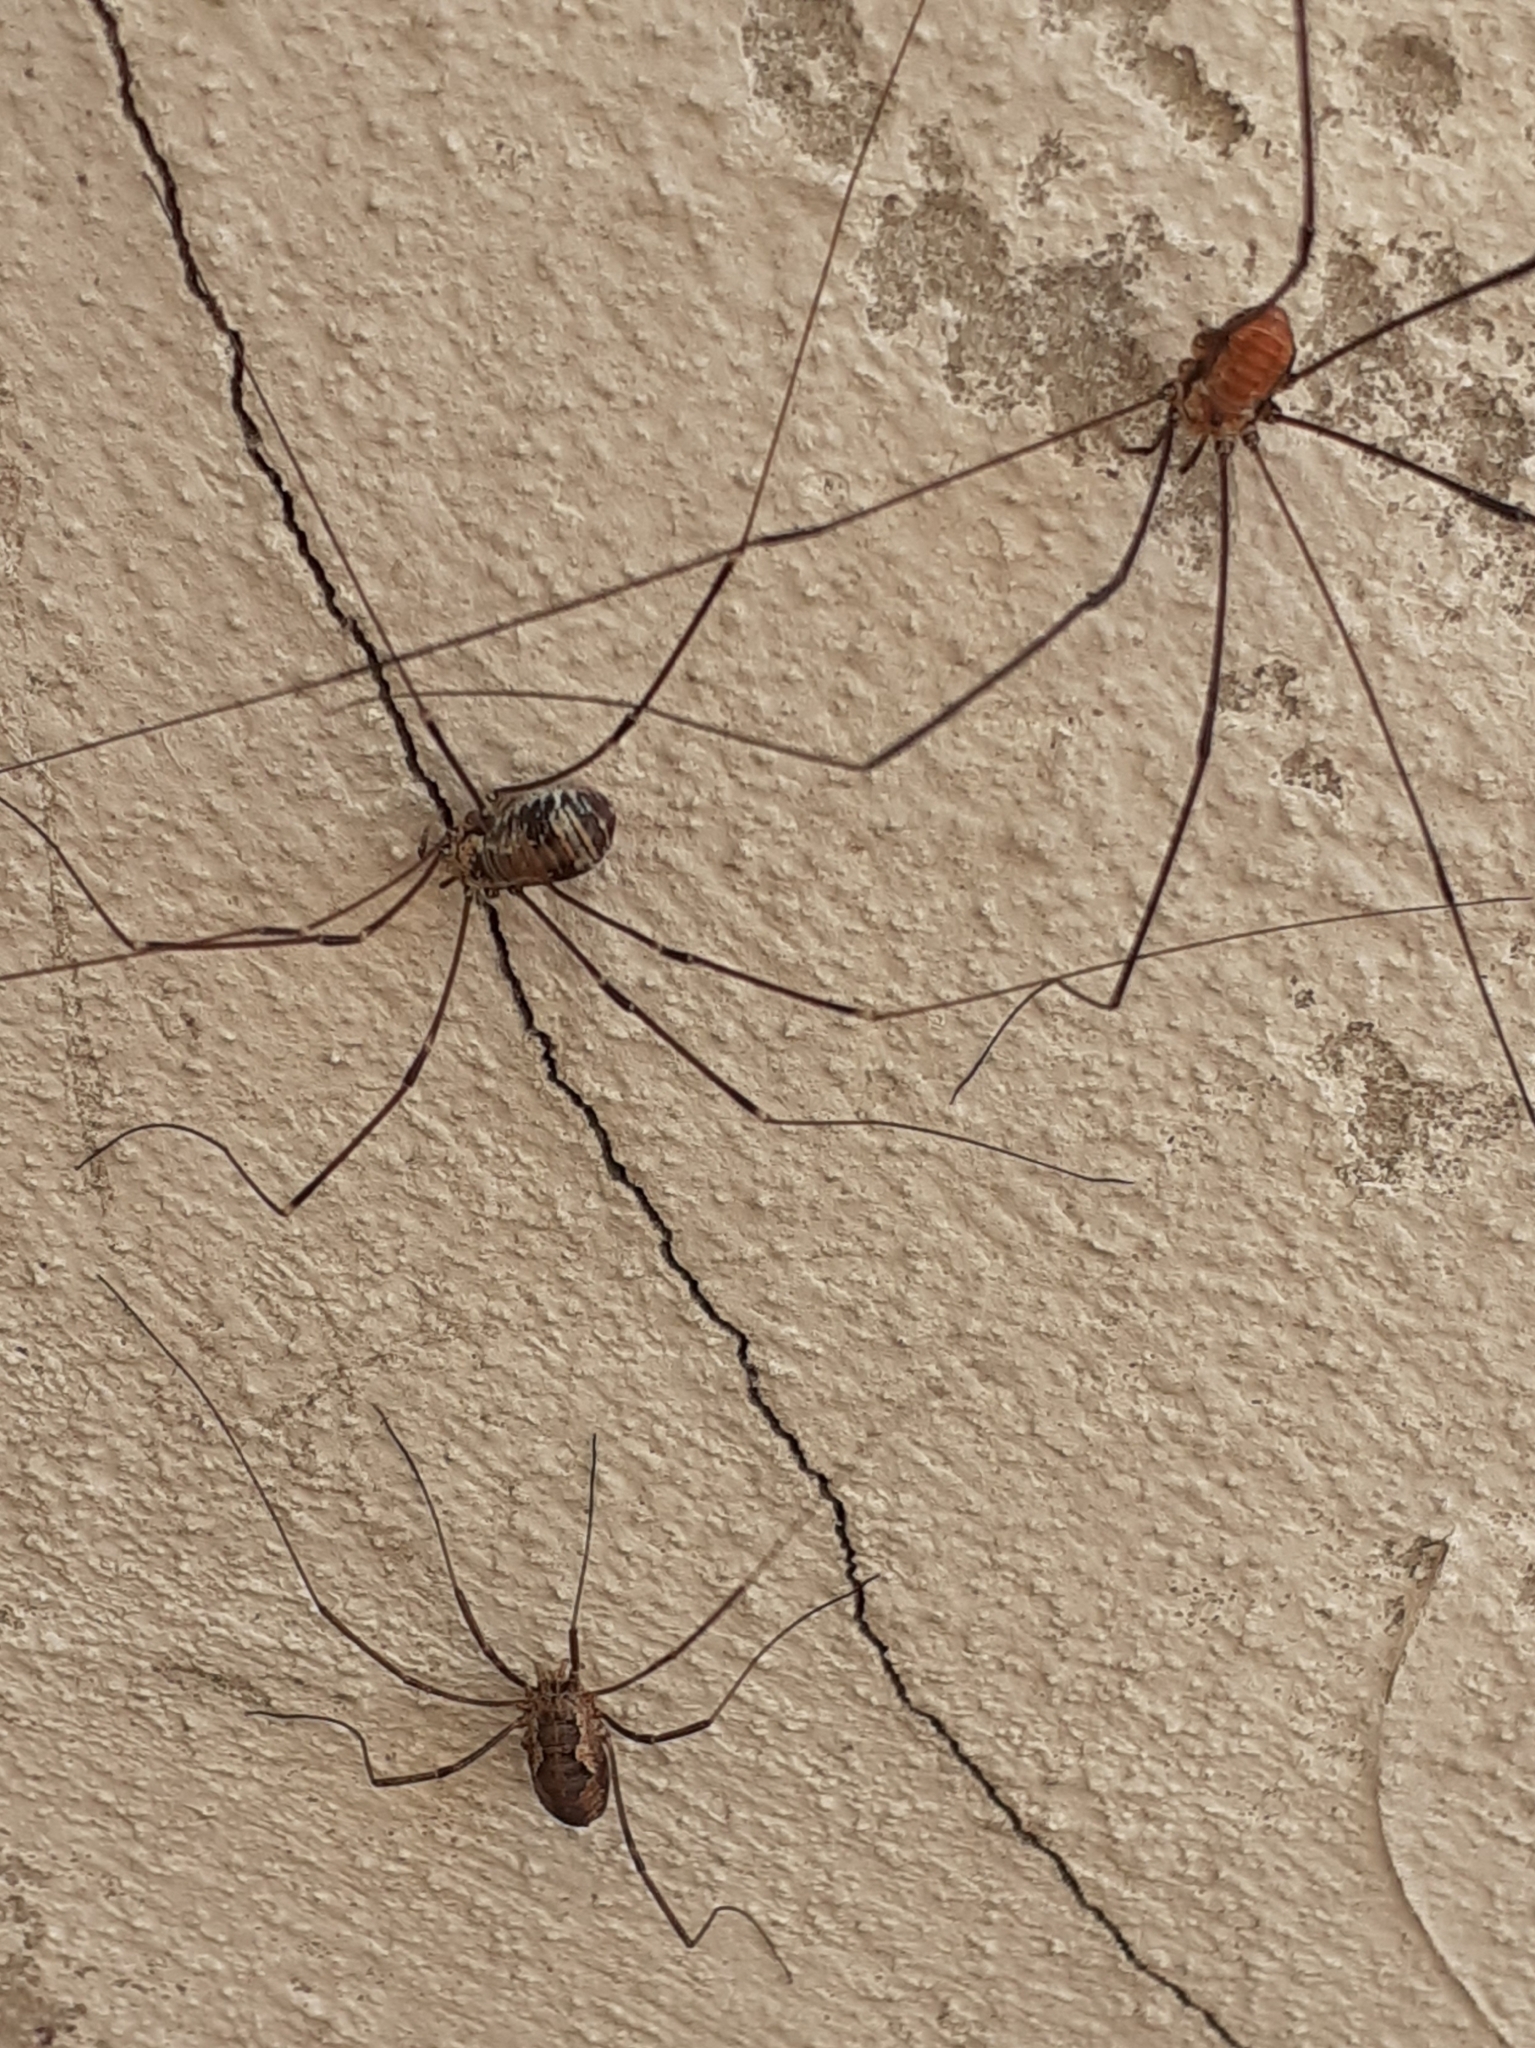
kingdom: Animalia
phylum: Arthropoda
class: Arachnida
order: Opiliones
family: Sclerosomatidae
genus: Leiobunum
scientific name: Leiobunum limbatum
